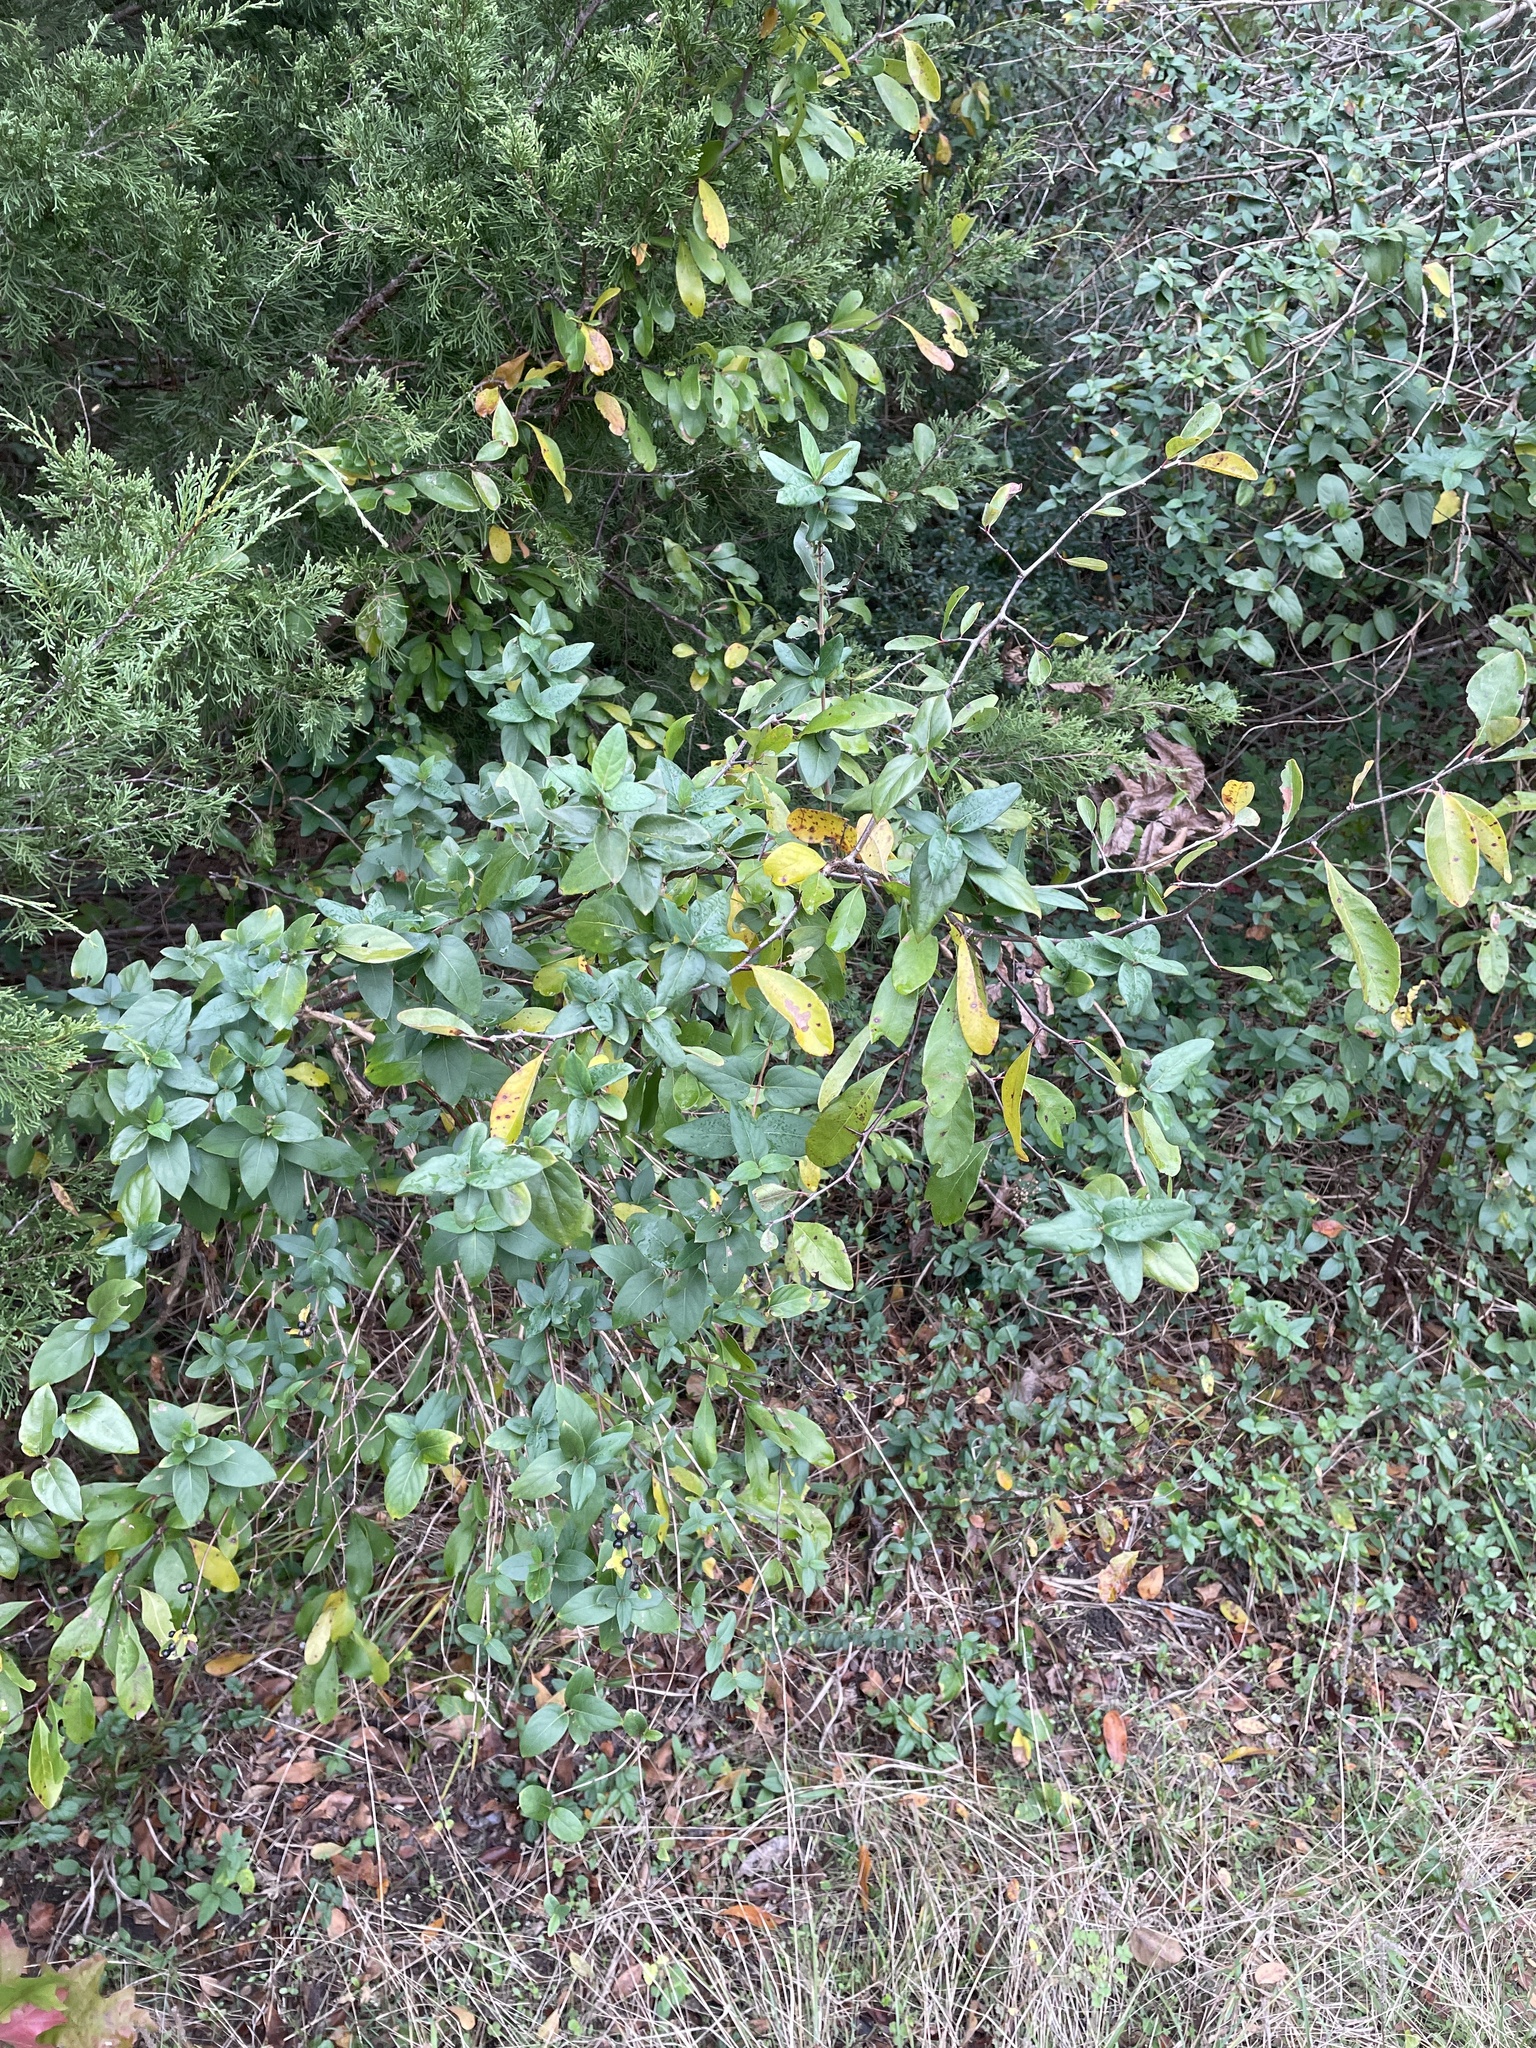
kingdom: Plantae
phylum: Tracheophyta
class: Magnoliopsida
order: Dipsacales
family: Caprifoliaceae
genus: Lonicera
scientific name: Lonicera japonica
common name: Japanese honeysuckle
